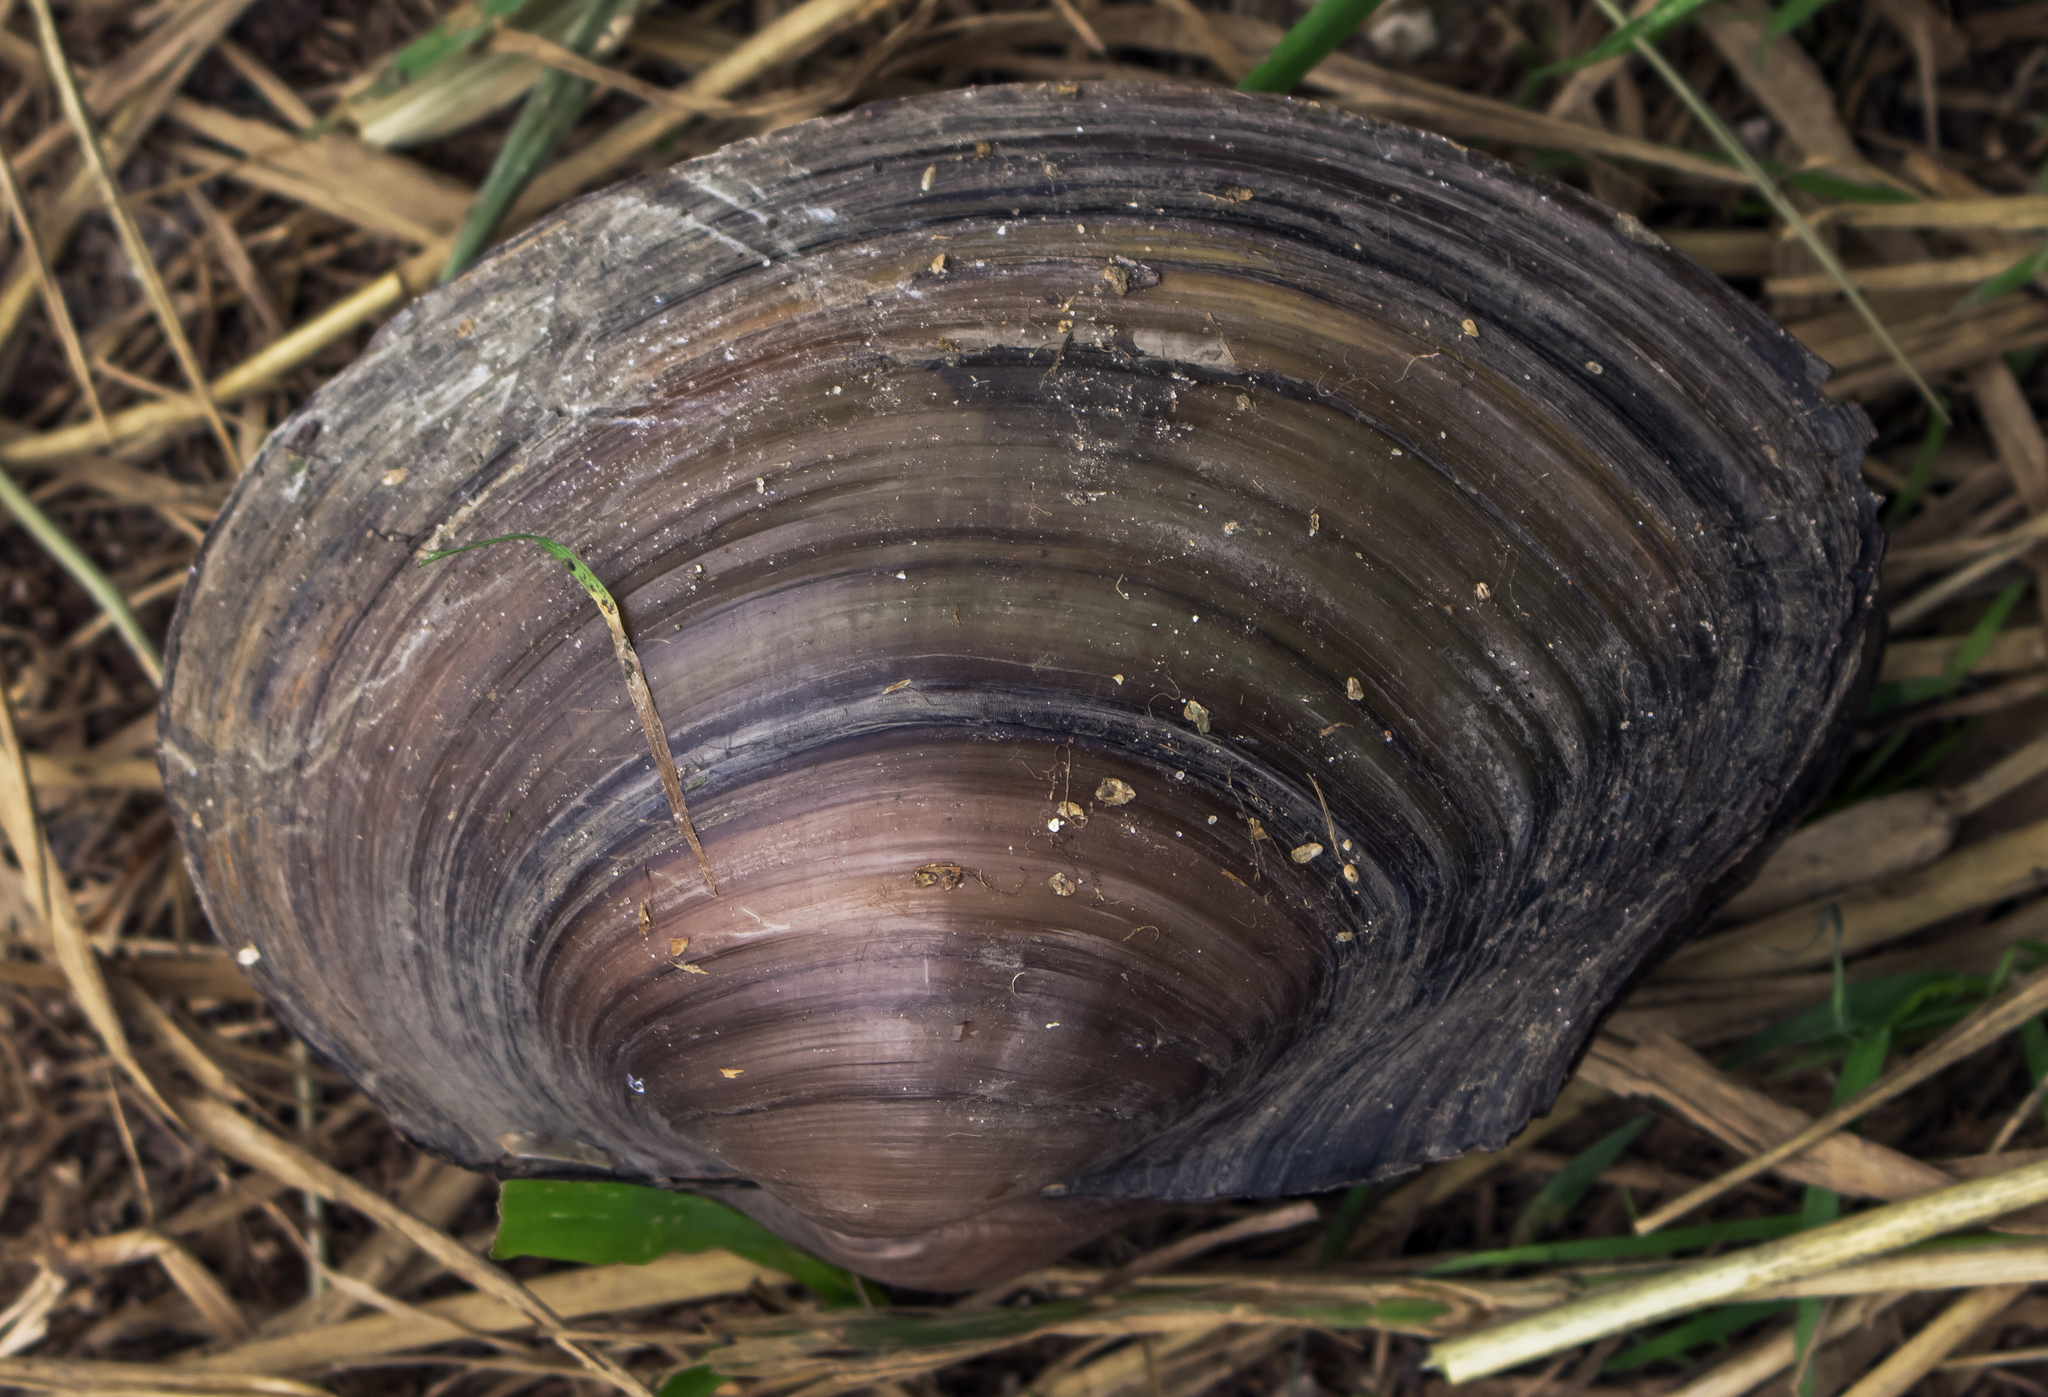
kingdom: Animalia
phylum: Mollusca
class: Bivalvia
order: Unionida
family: Unionidae
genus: Pyganodon
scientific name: Pyganodon grandis
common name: Giant floater
